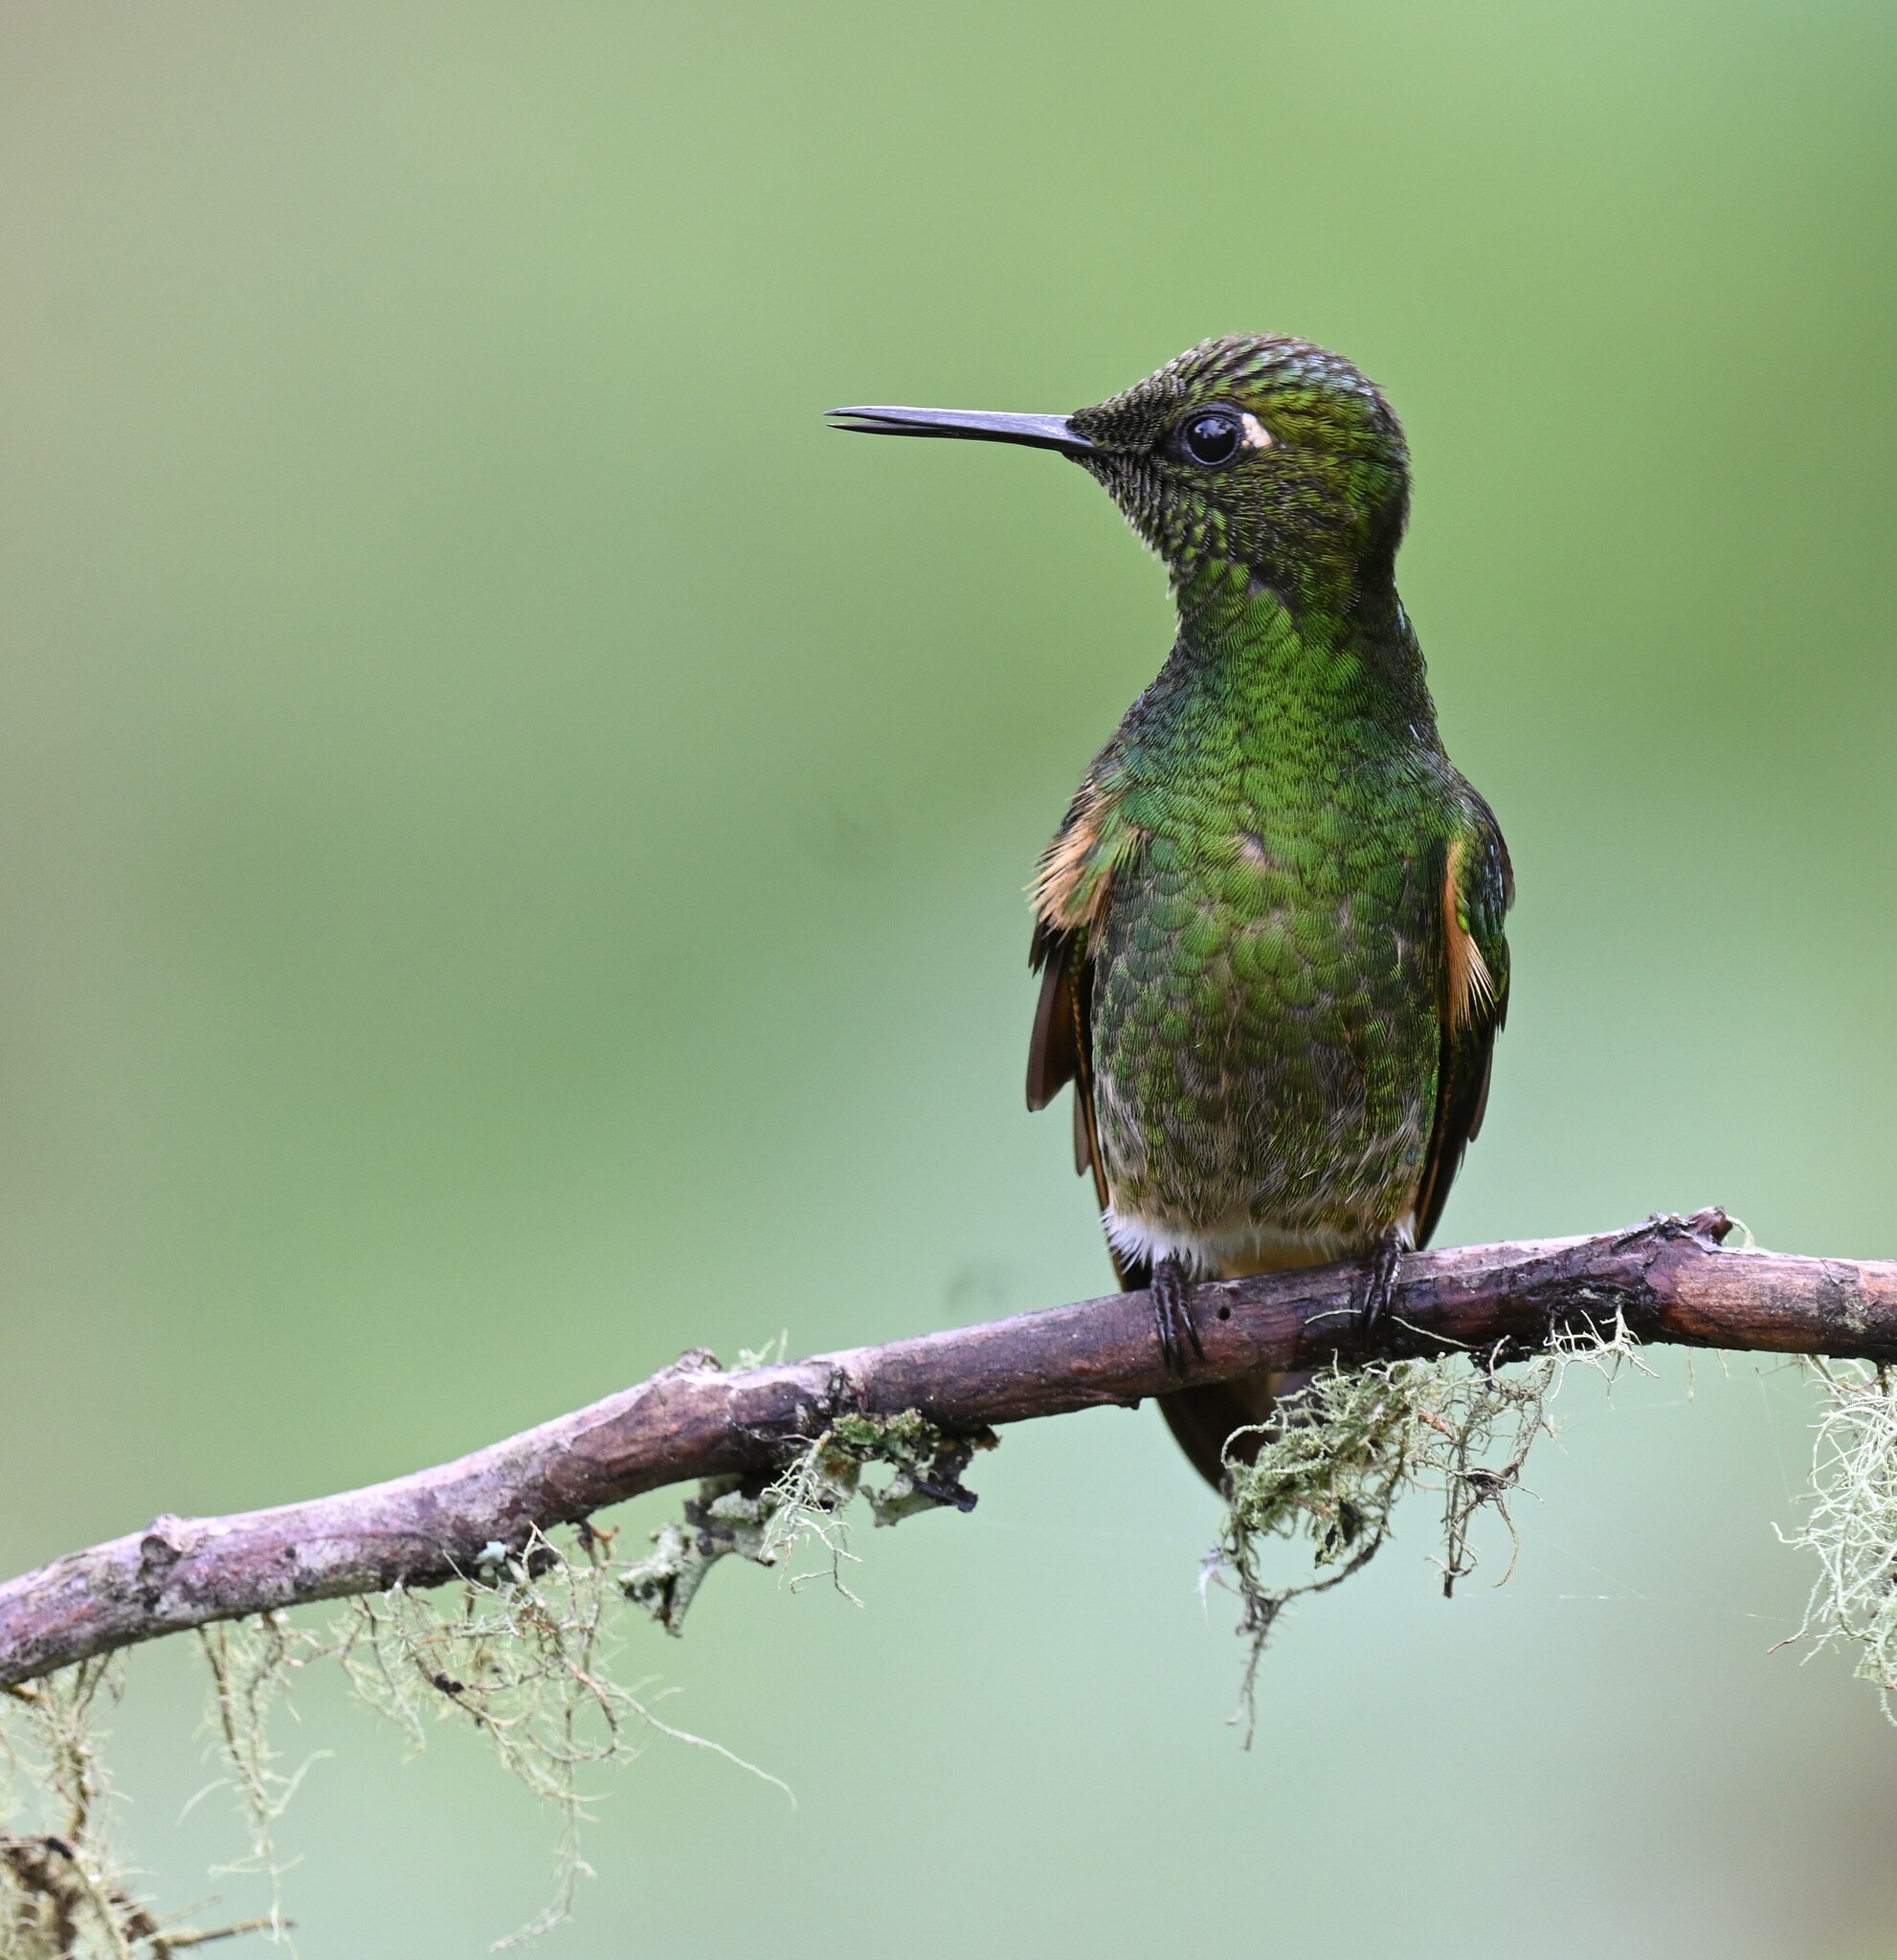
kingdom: Animalia
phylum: Chordata
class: Aves
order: Apodiformes
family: Trochilidae
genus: Boissonneaua
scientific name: Boissonneaua flavescens
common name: Buff-tailed coronet
